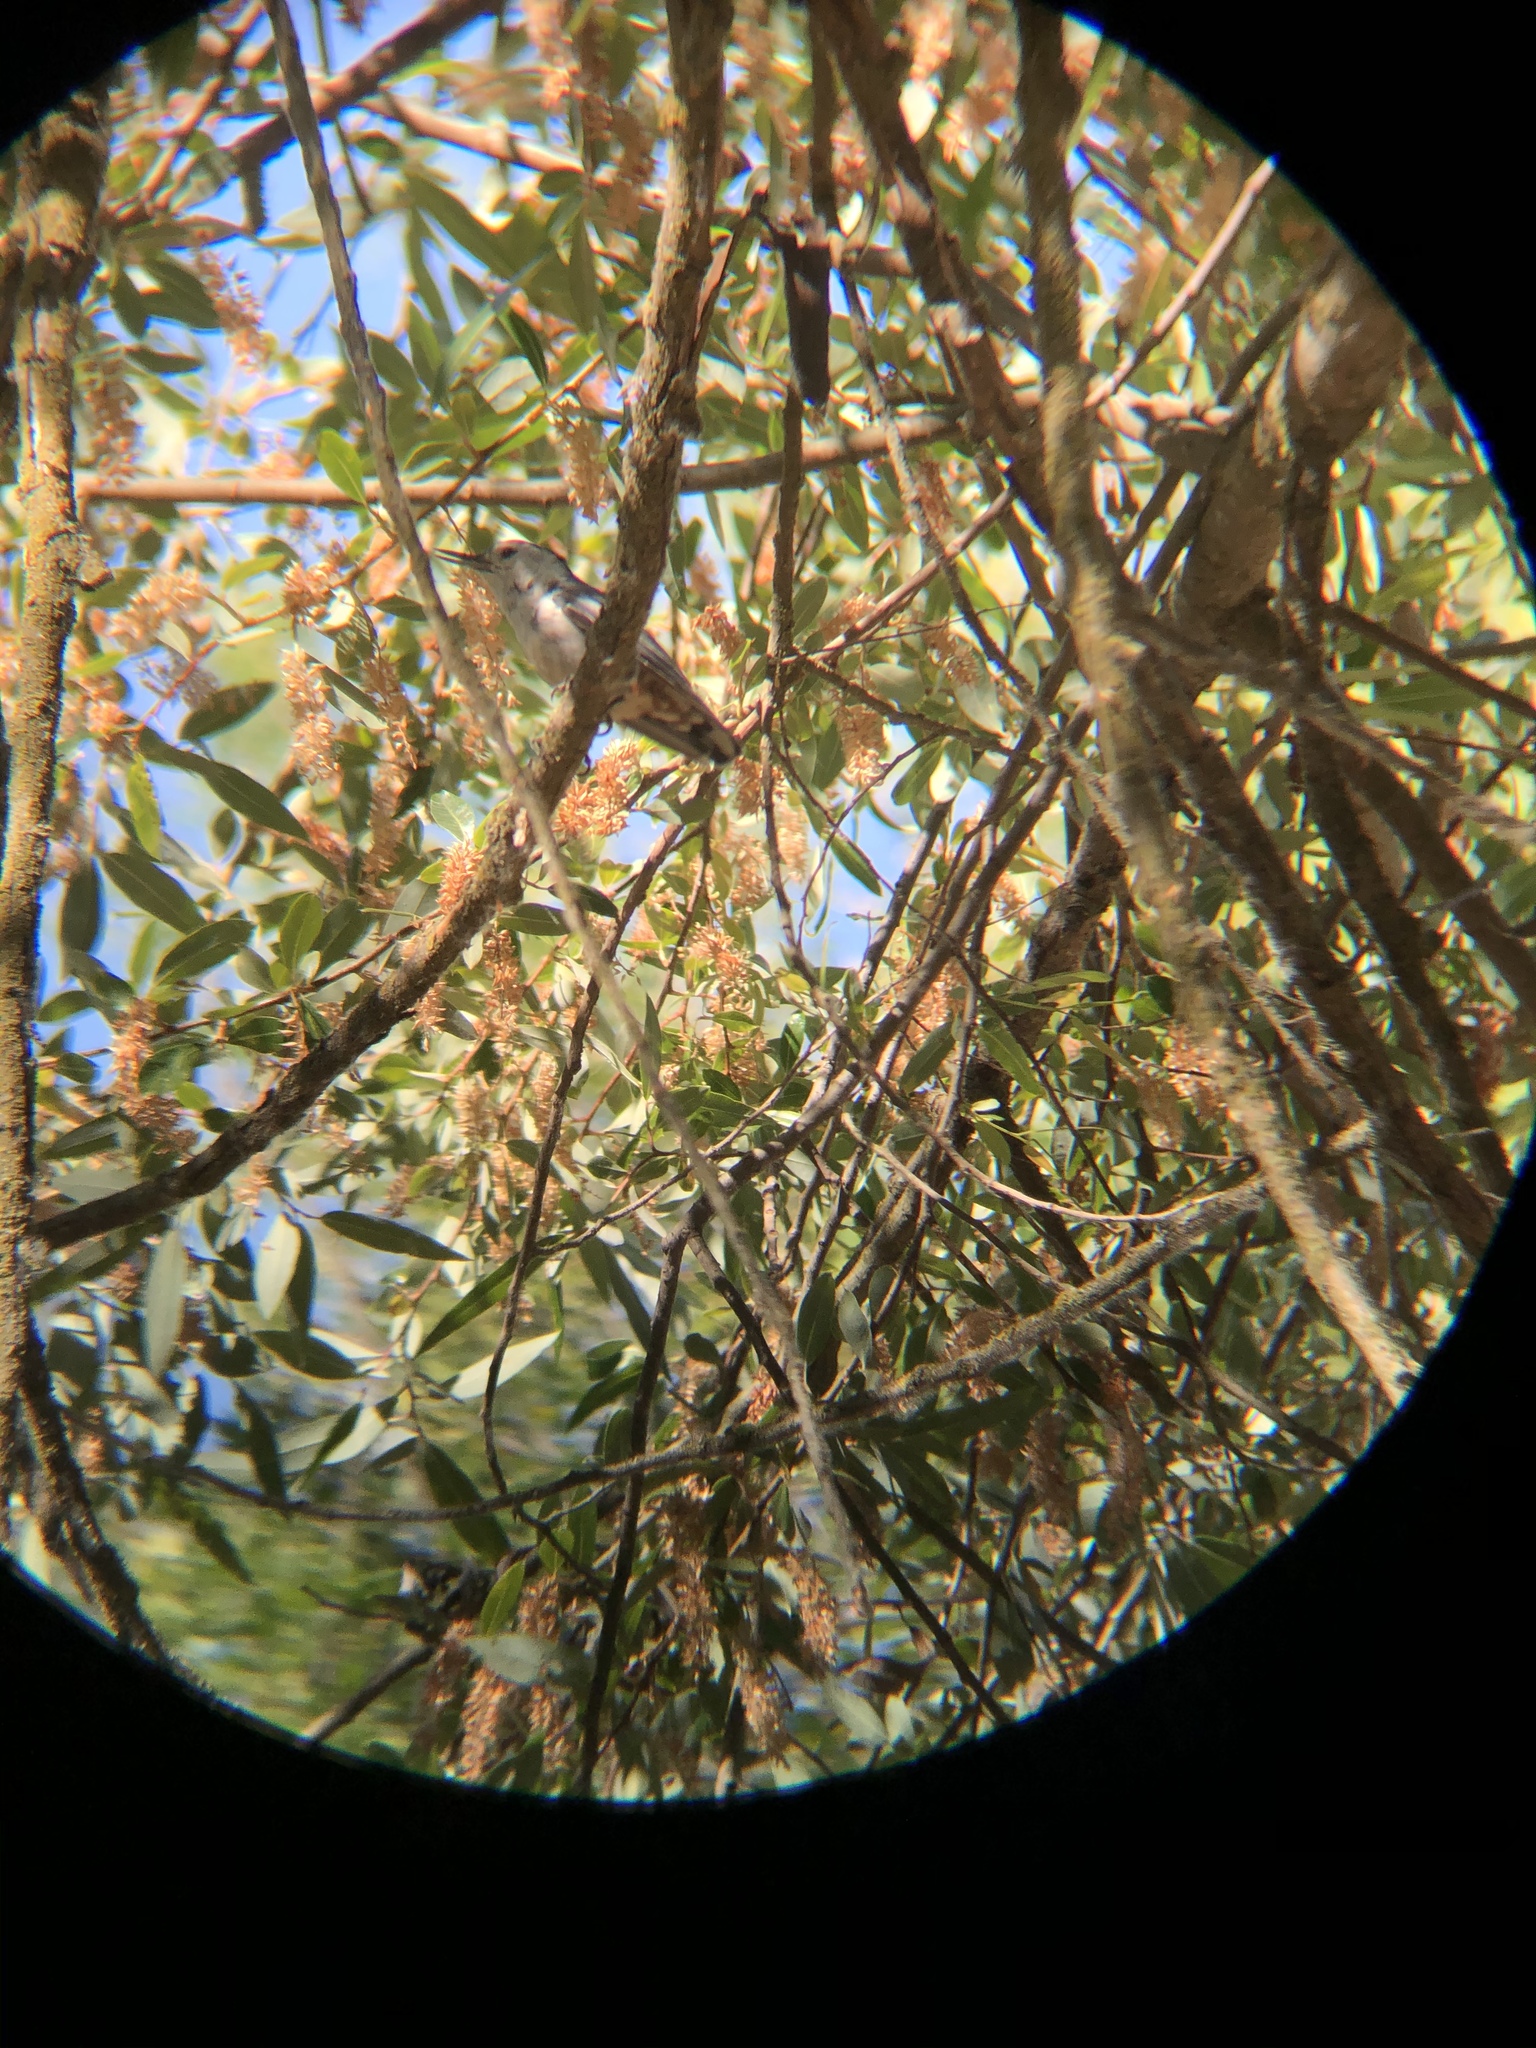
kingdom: Animalia
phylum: Chordata
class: Aves
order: Passeriformes
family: Sittidae
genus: Sitta
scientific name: Sitta carolinensis
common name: White-breasted nuthatch
